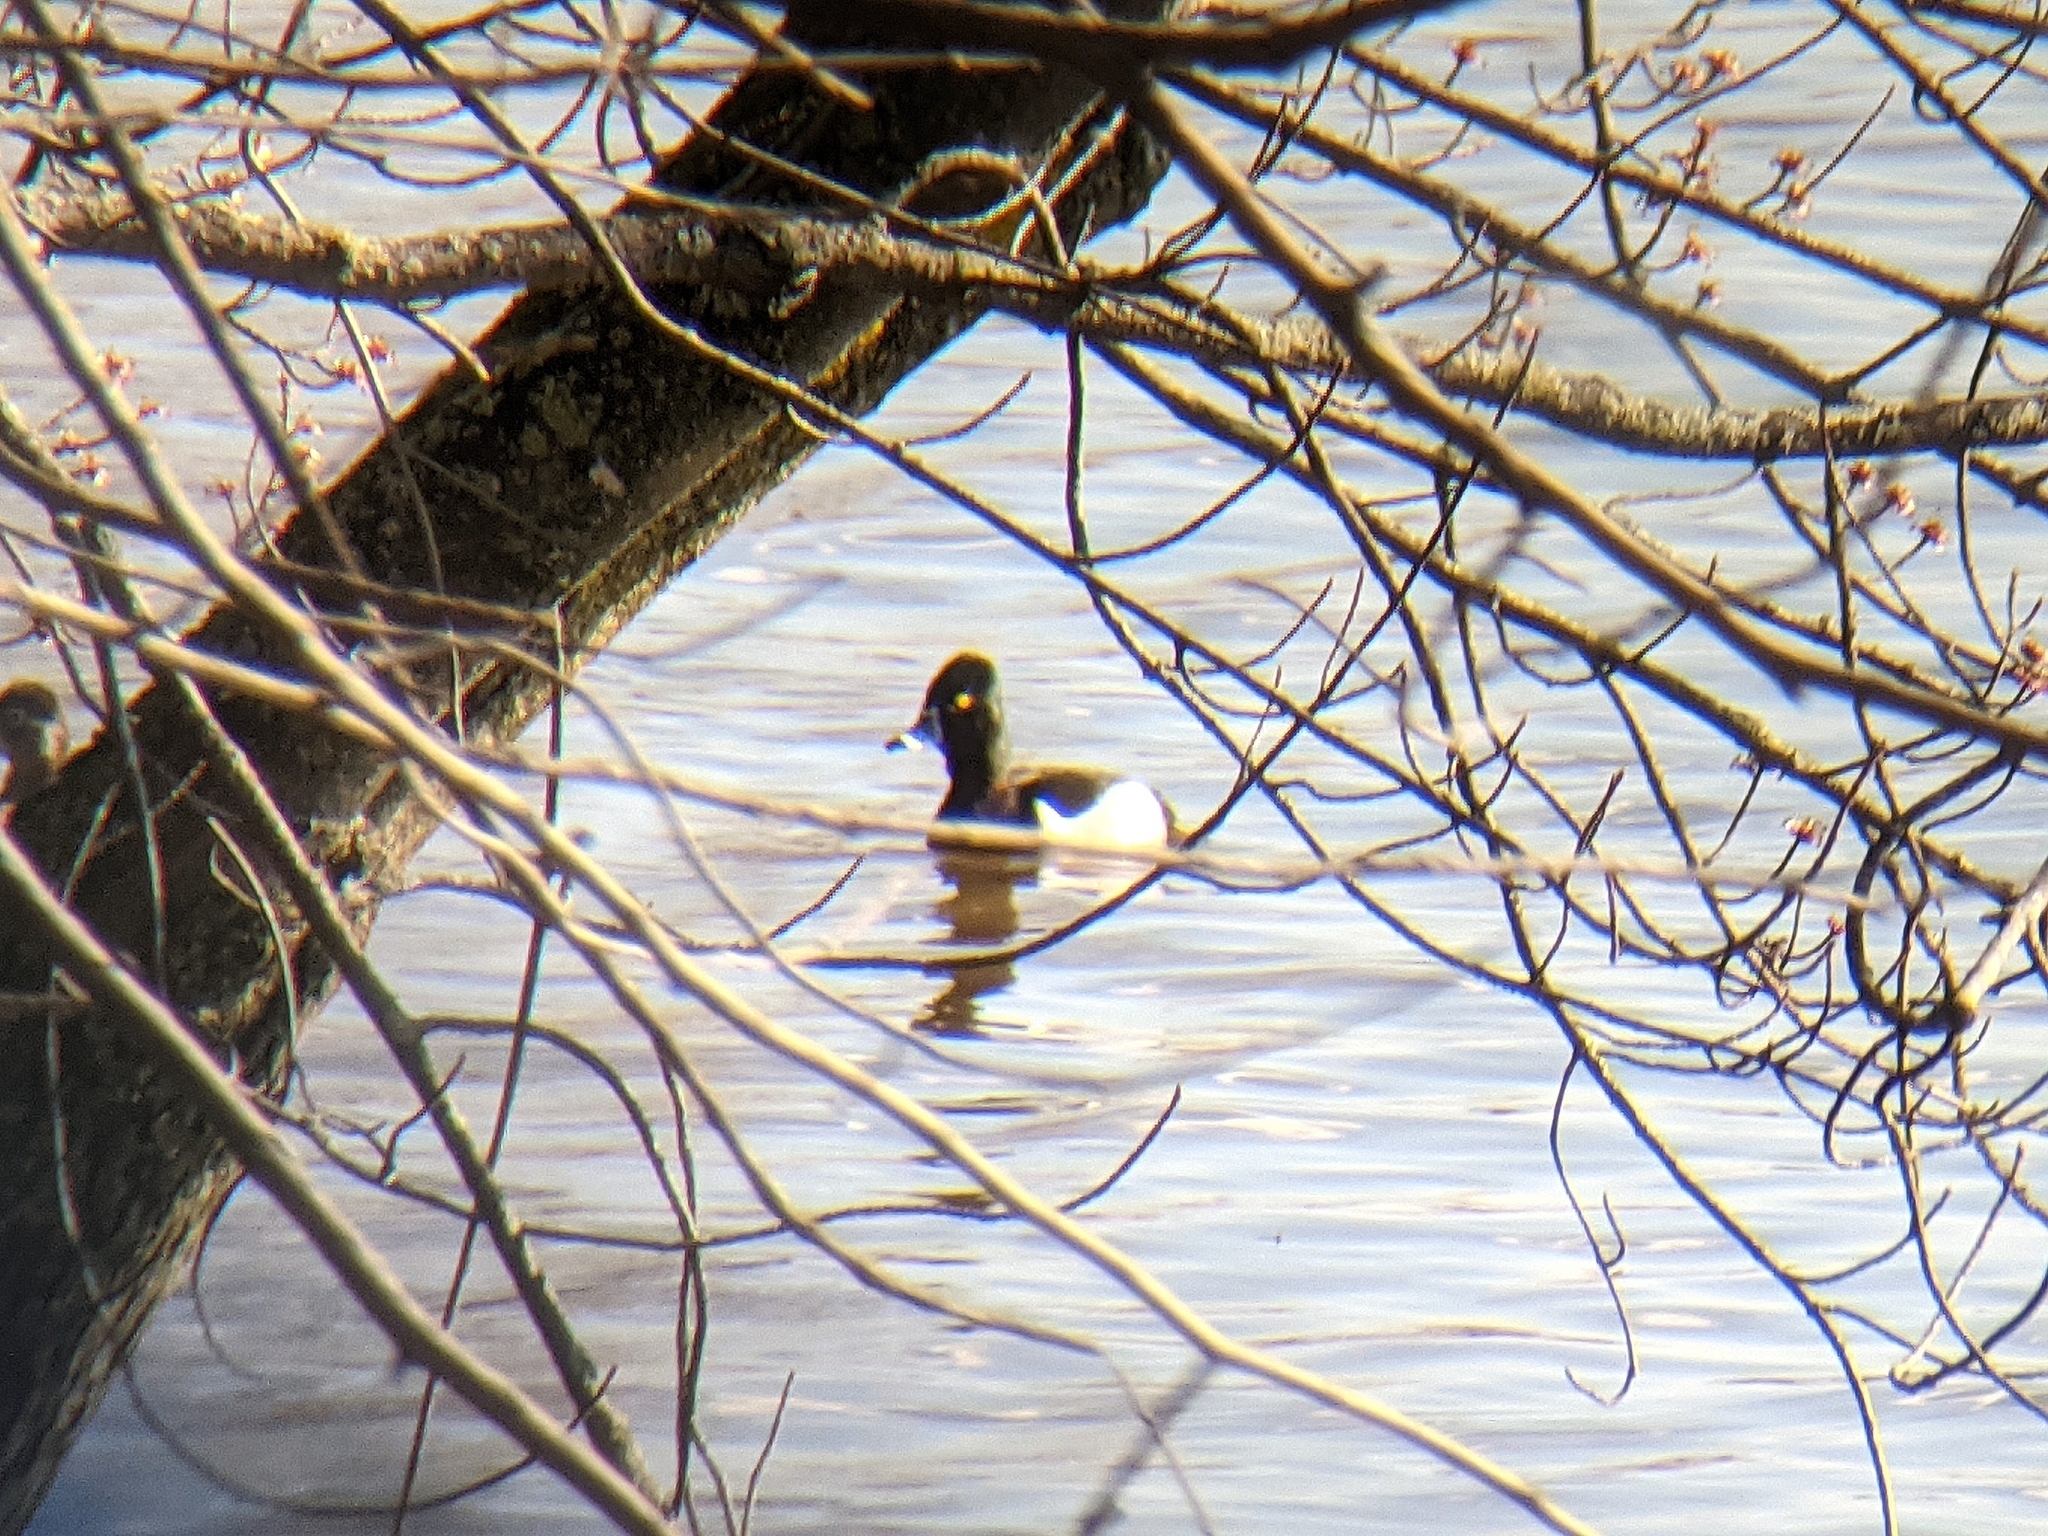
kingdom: Animalia
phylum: Chordata
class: Aves
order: Anseriformes
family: Anatidae
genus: Aythya
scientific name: Aythya collaris
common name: Ring-necked duck
